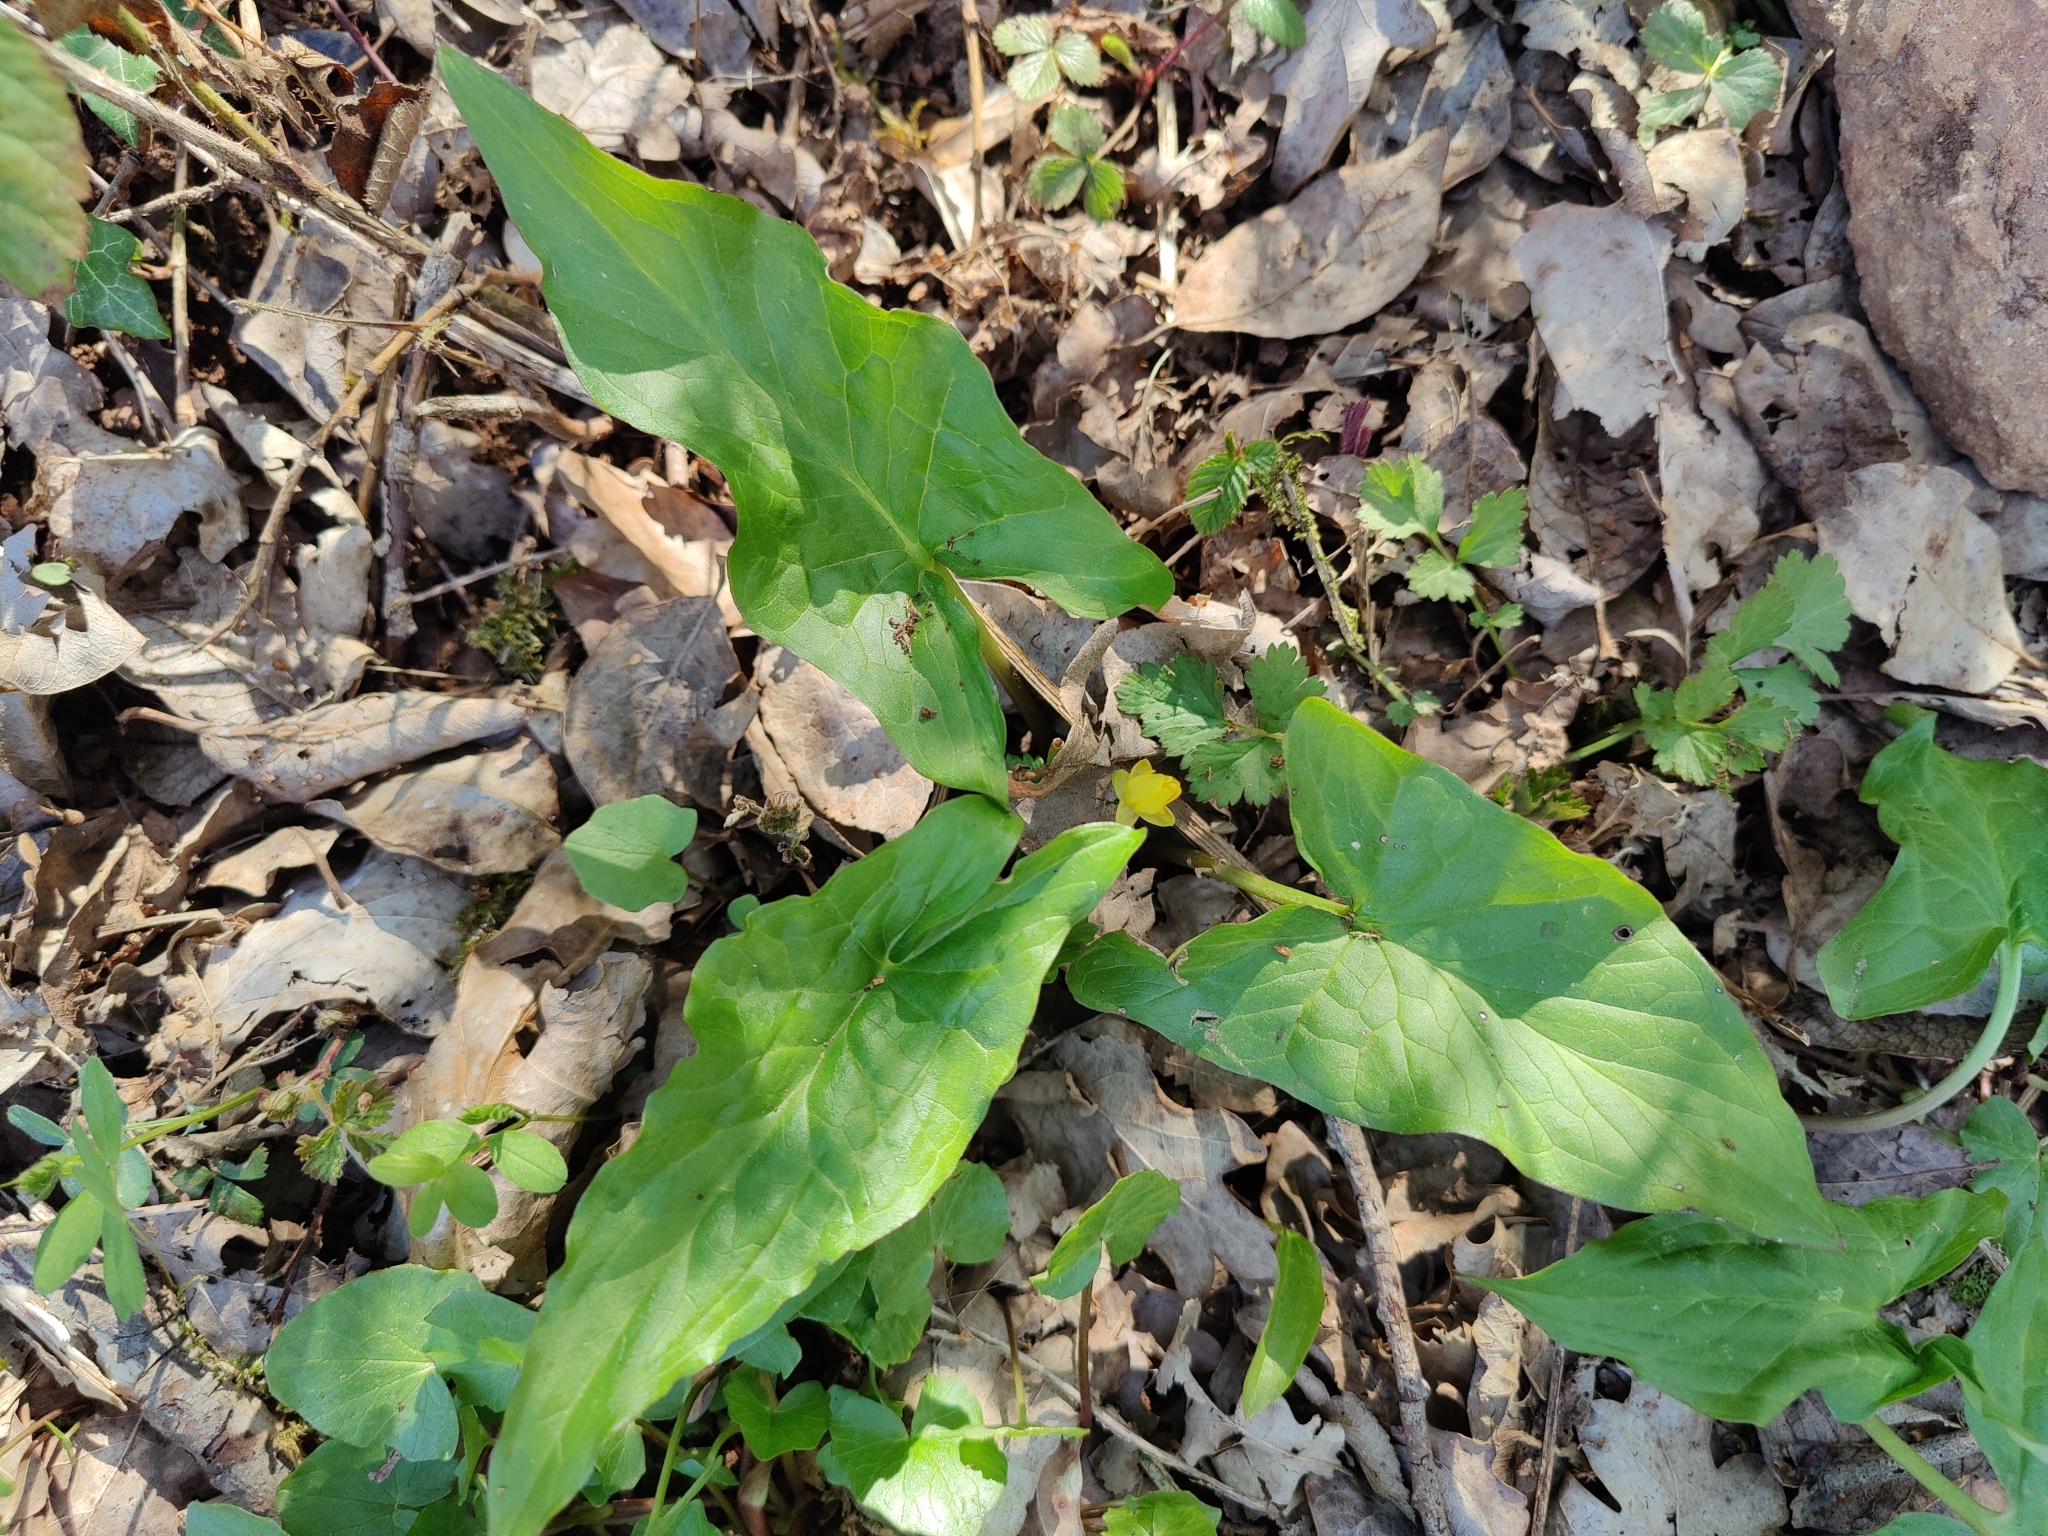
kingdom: Plantae
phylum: Tracheophyta
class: Liliopsida
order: Alismatales
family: Araceae
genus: Arum
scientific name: Arum maculatum
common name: Lords-and-ladies
